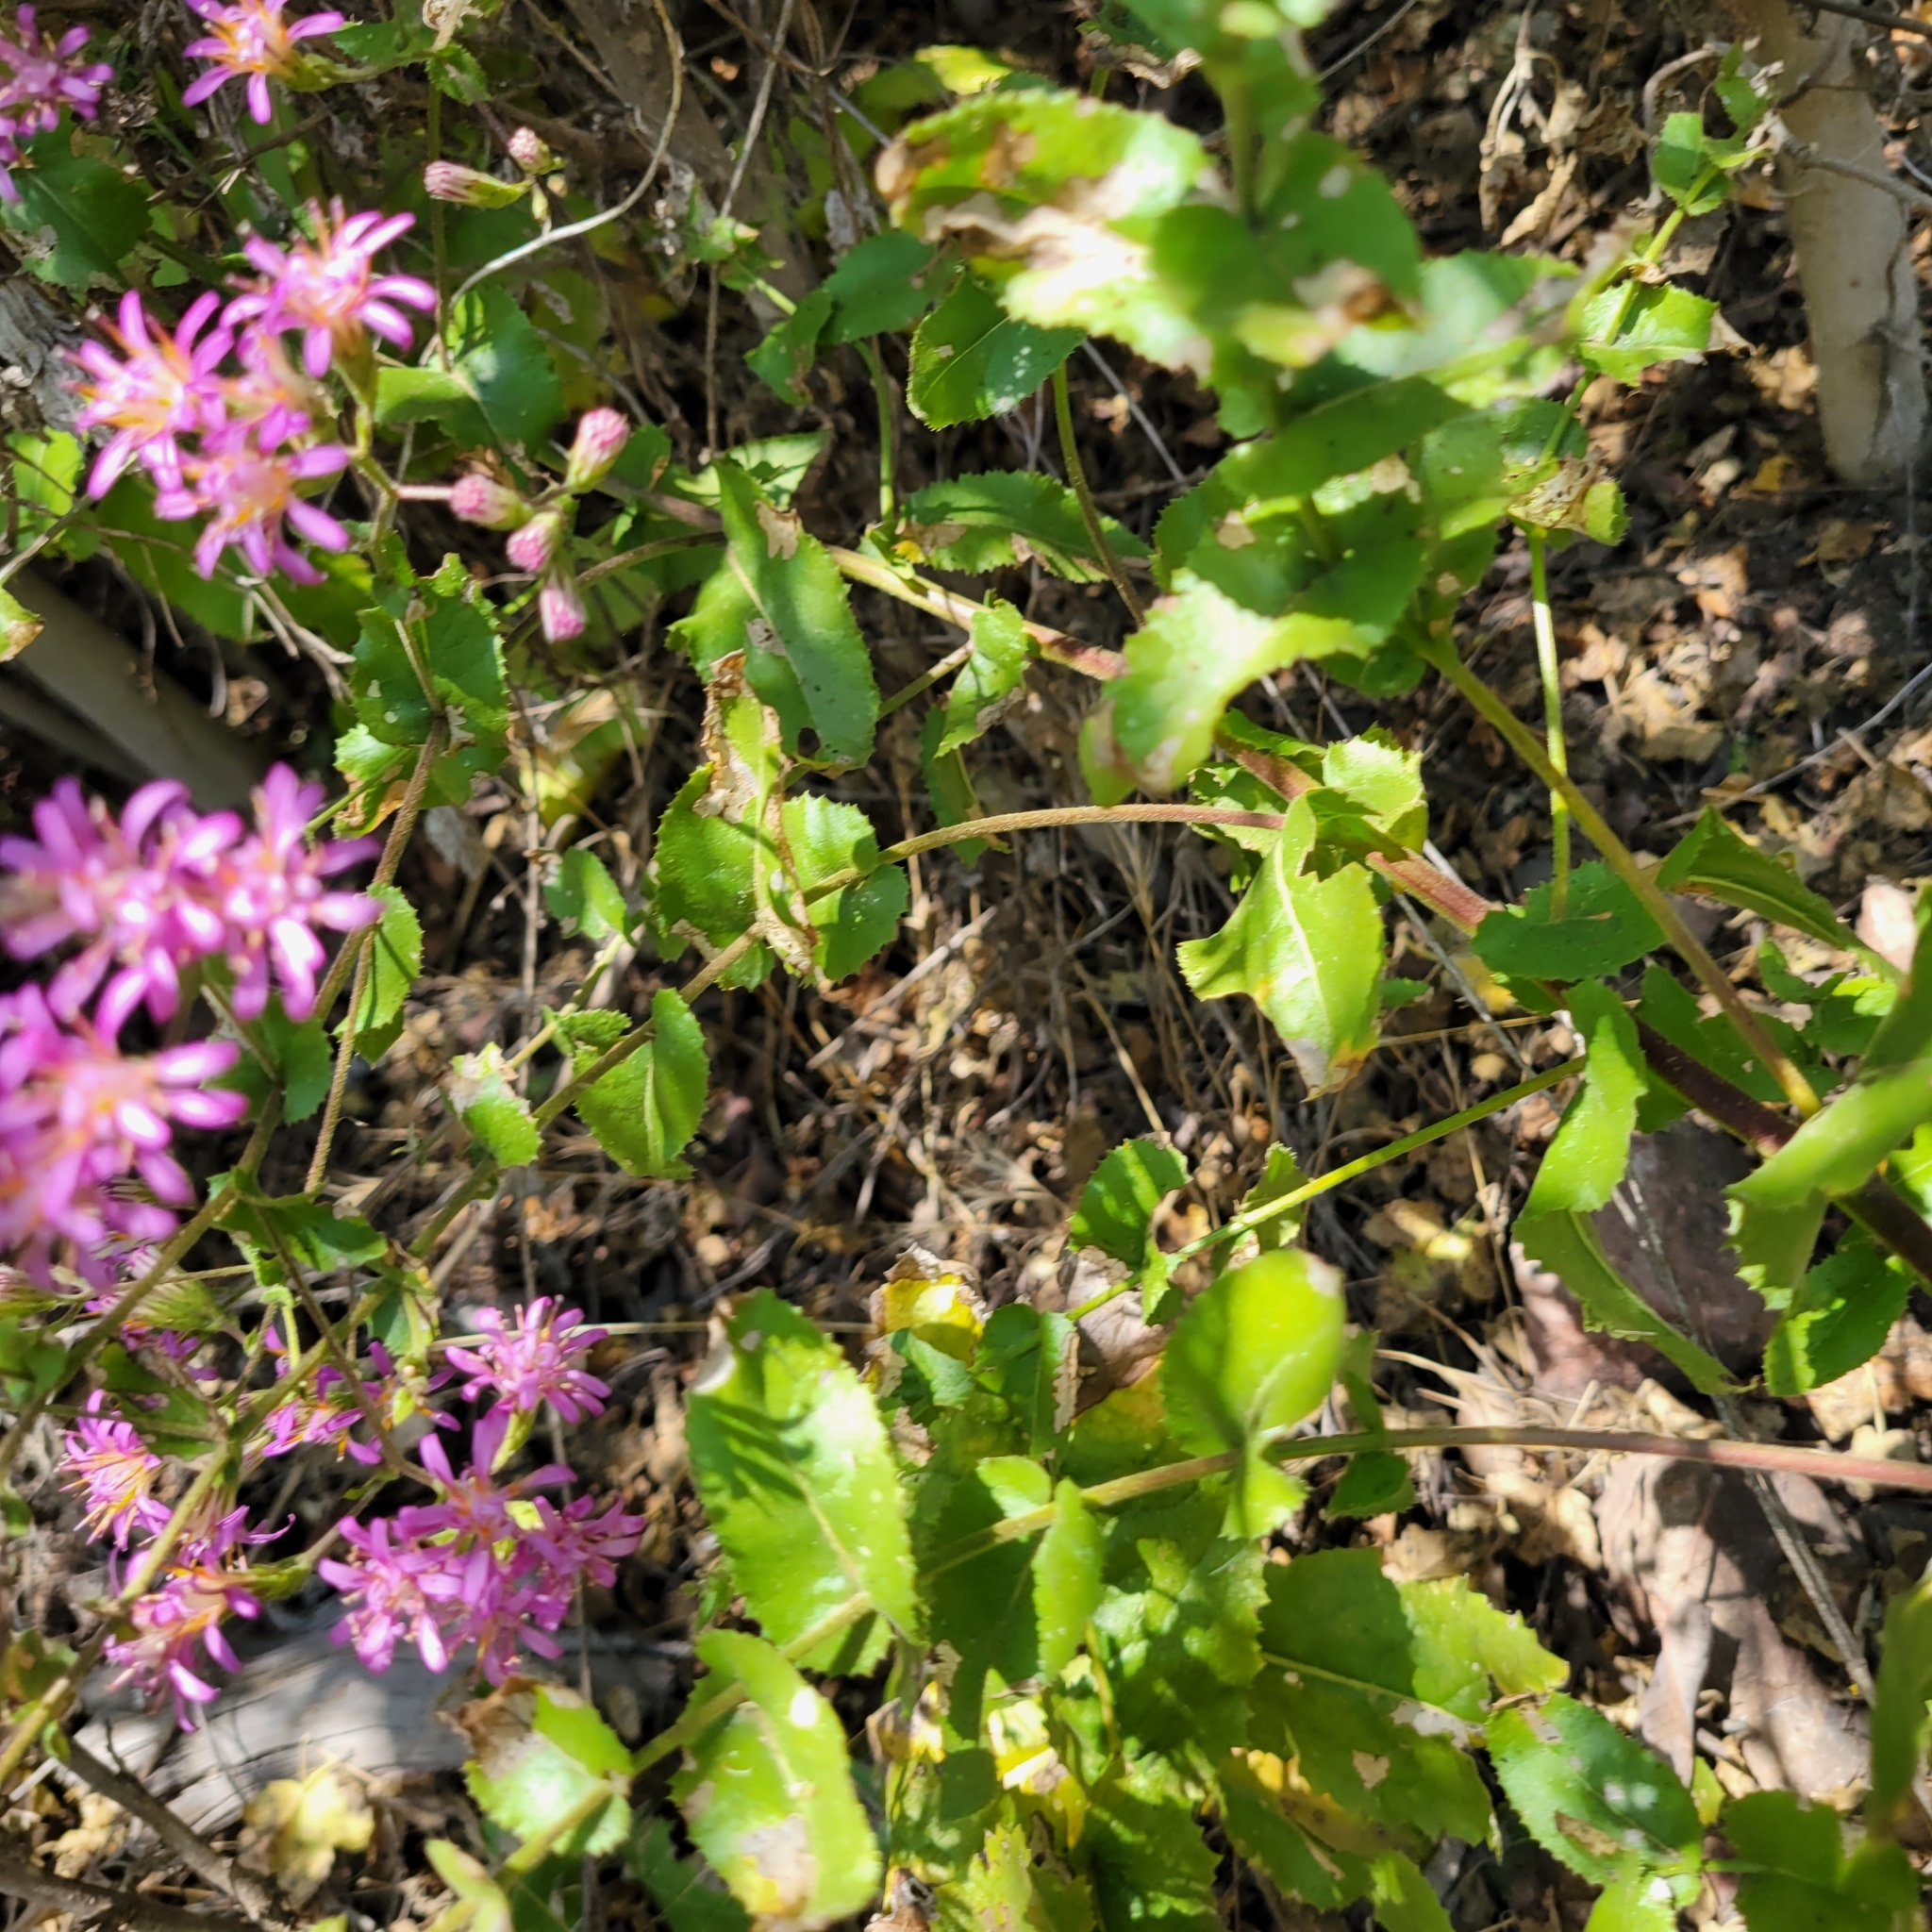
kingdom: Plantae
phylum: Tracheophyta
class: Magnoliopsida
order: Asterales
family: Asteraceae
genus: Acourtia
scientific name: Acourtia microcephala
